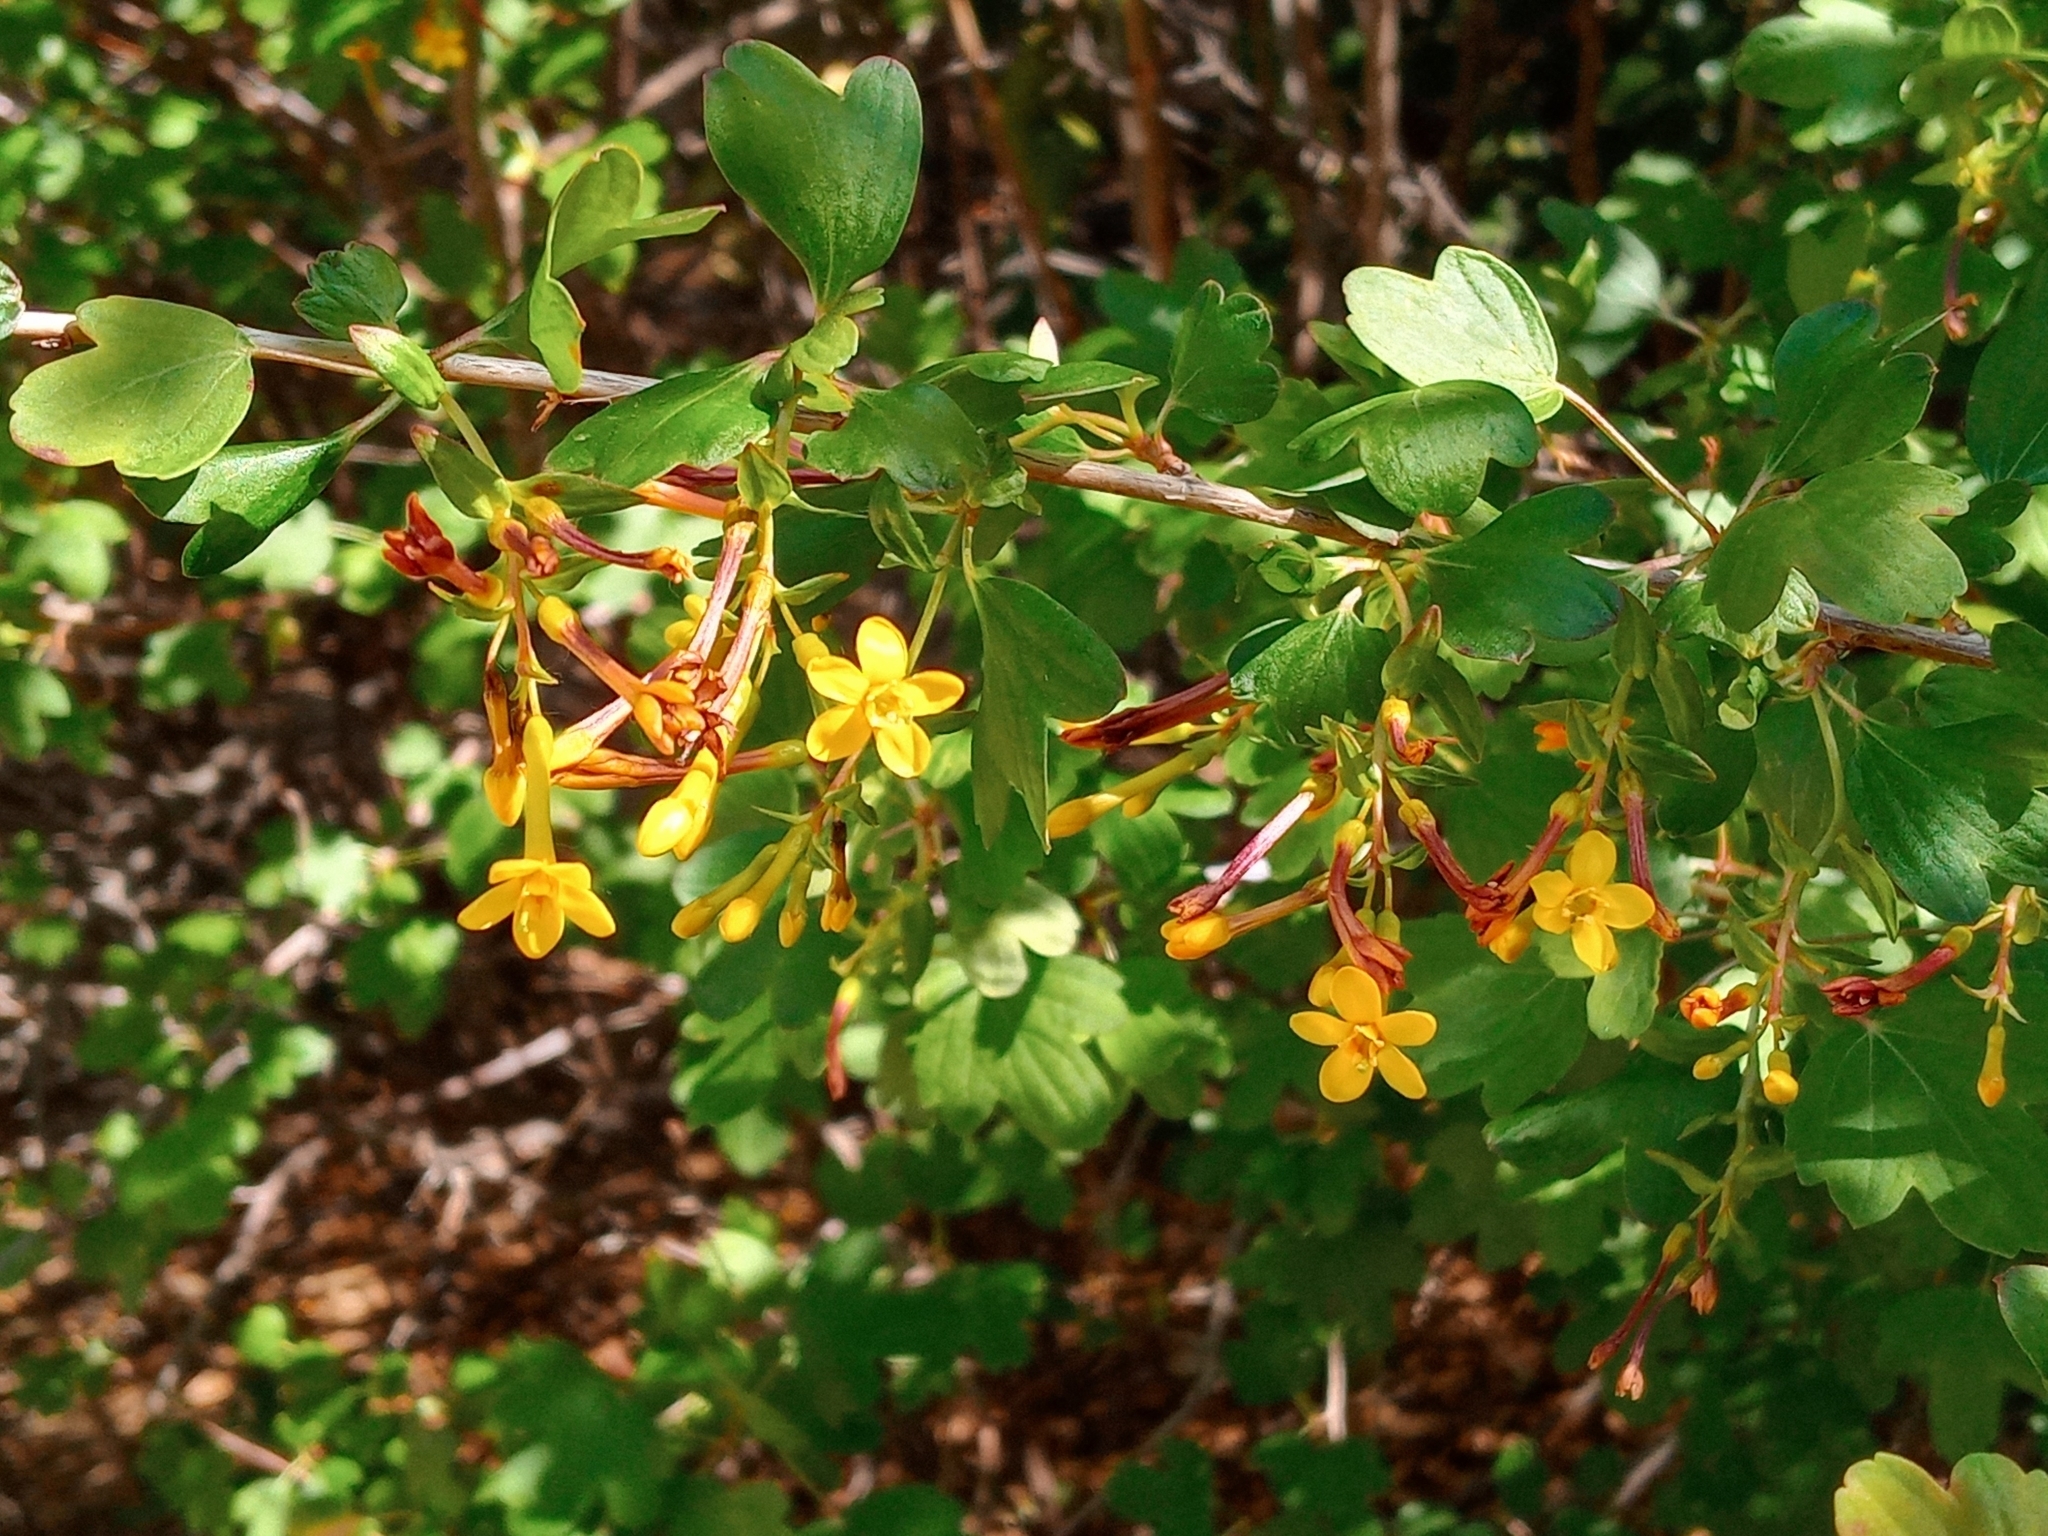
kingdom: Plantae
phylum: Tracheophyta
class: Magnoliopsida
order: Saxifragales
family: Grossulariaceae
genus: Ribes
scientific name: Ribes aureum
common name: Golden currant
